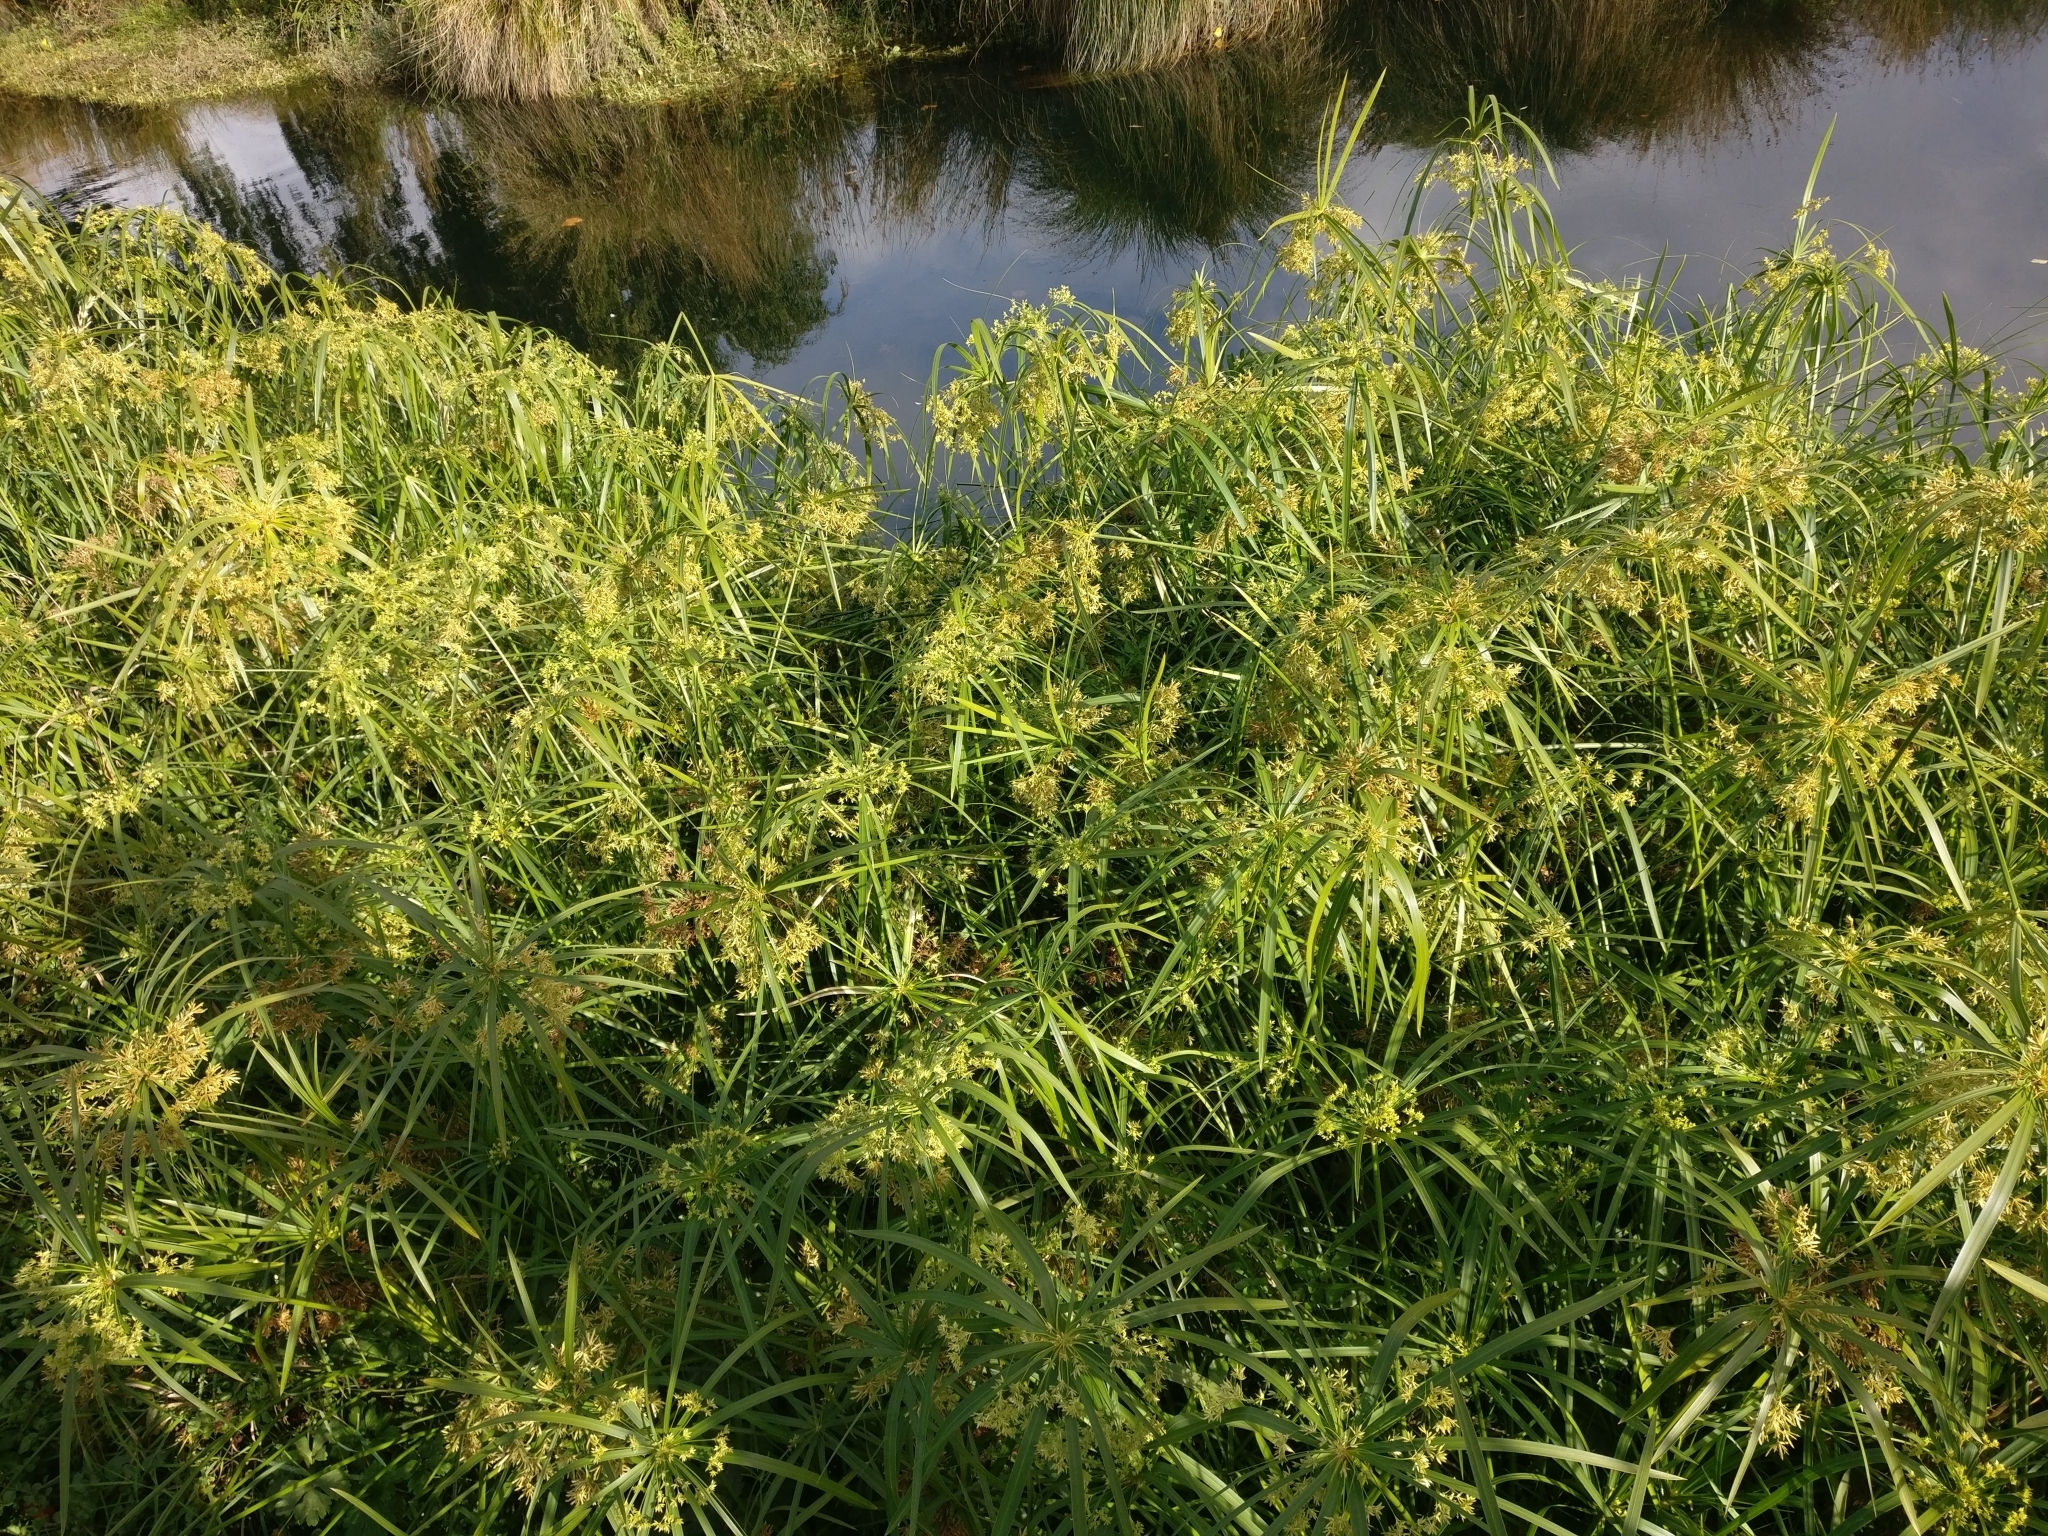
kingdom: Plantae
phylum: Tracheophyta
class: Liliopsida
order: Poales
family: Cyperaceae
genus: Cyperus
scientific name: Cyperus alternifolius
